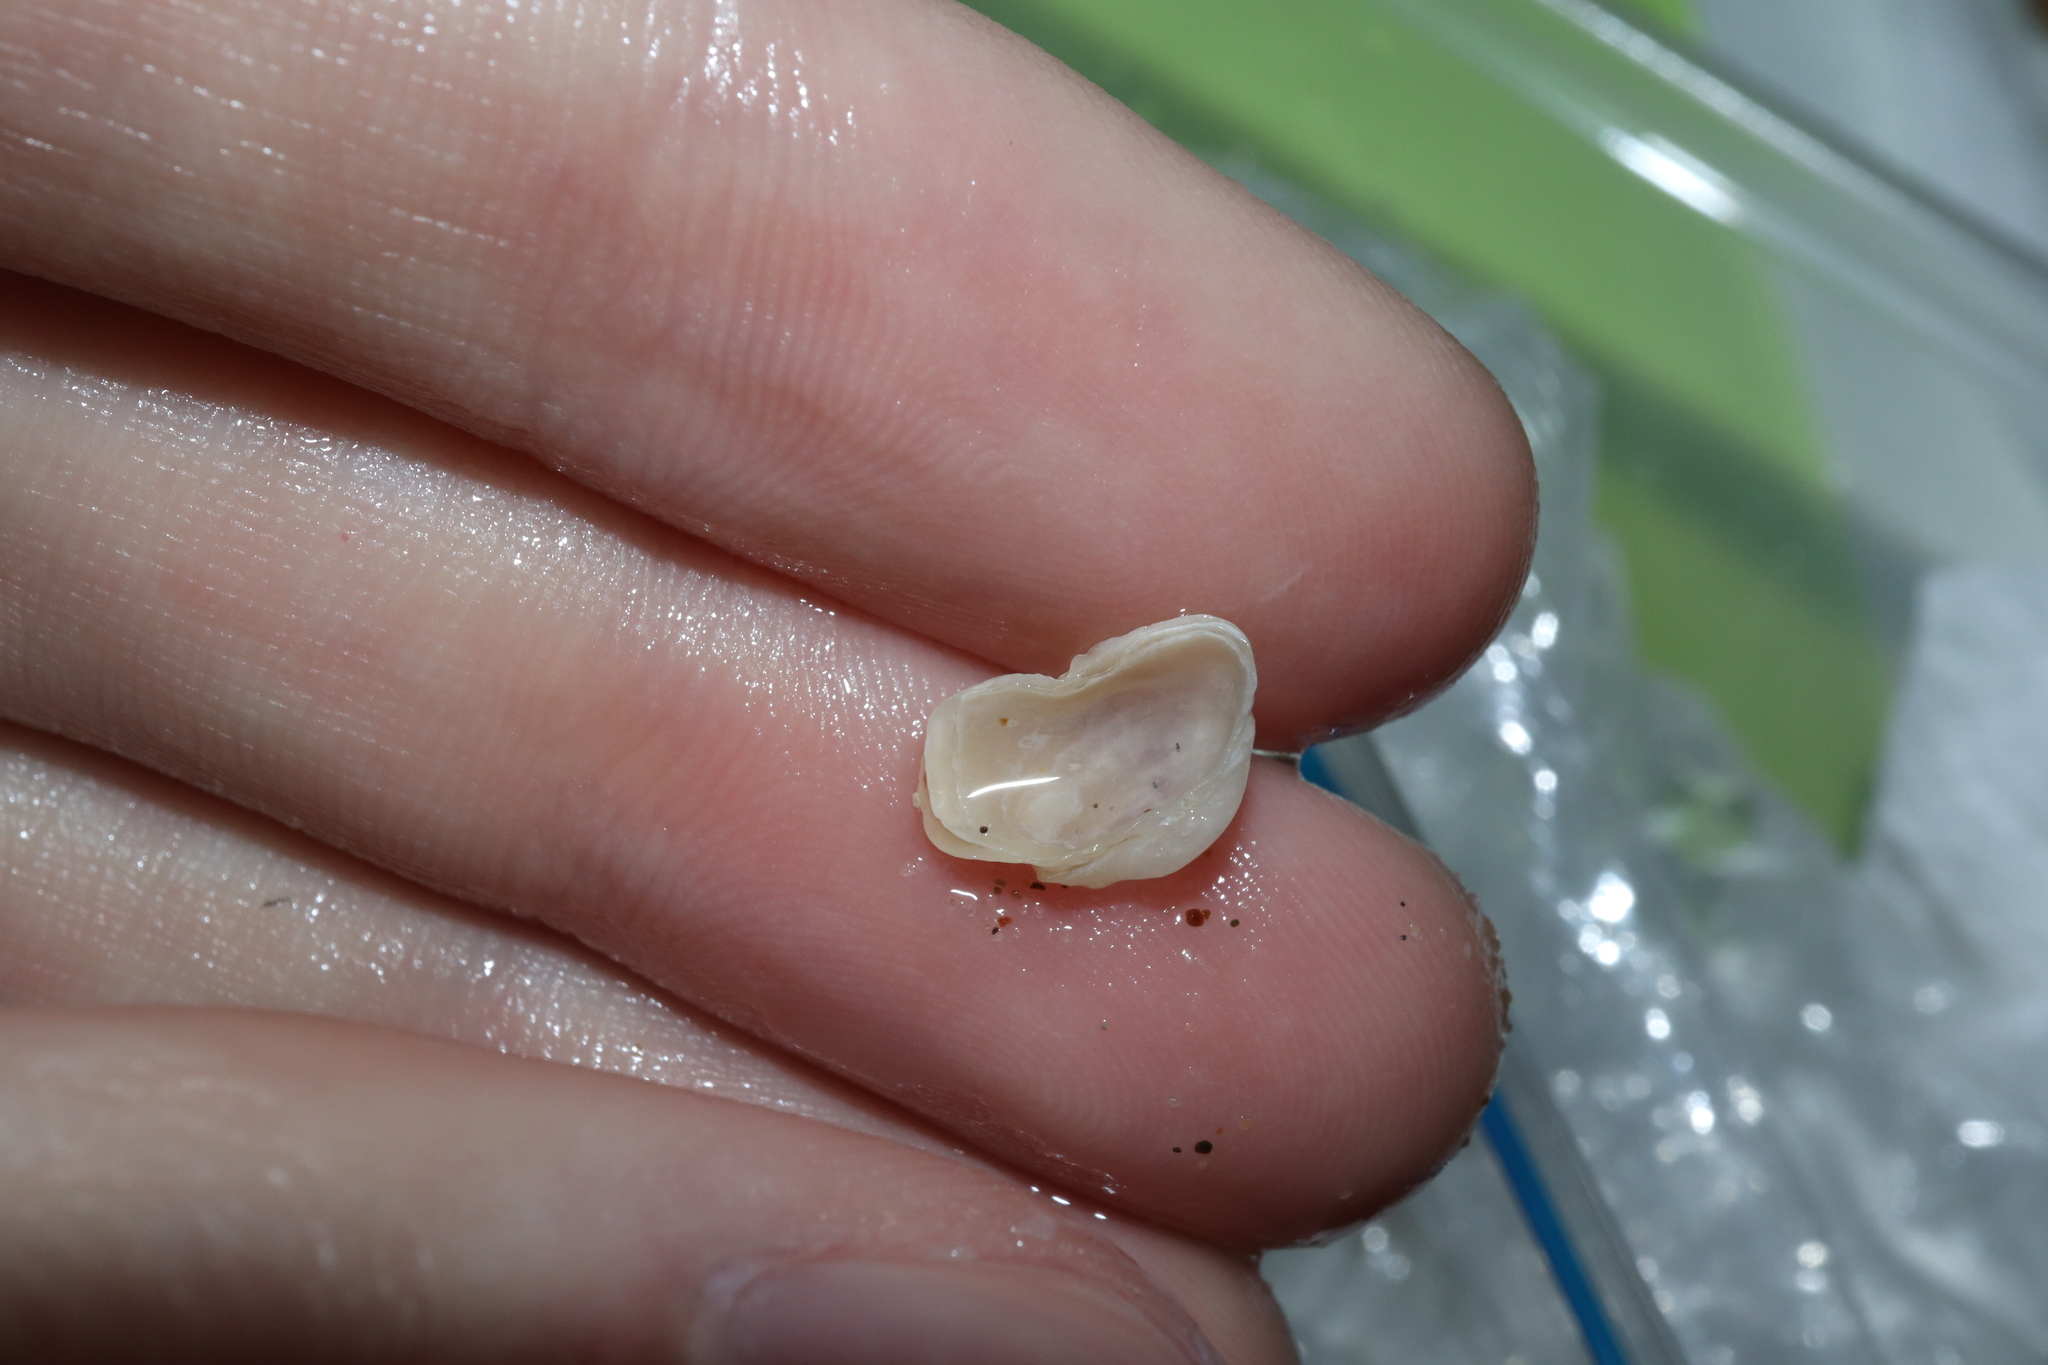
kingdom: Animalia
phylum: Mollusca
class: Bivalvia
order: Adapedonta
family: Hiatellidae
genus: Hiatella
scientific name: Hiatella australis
